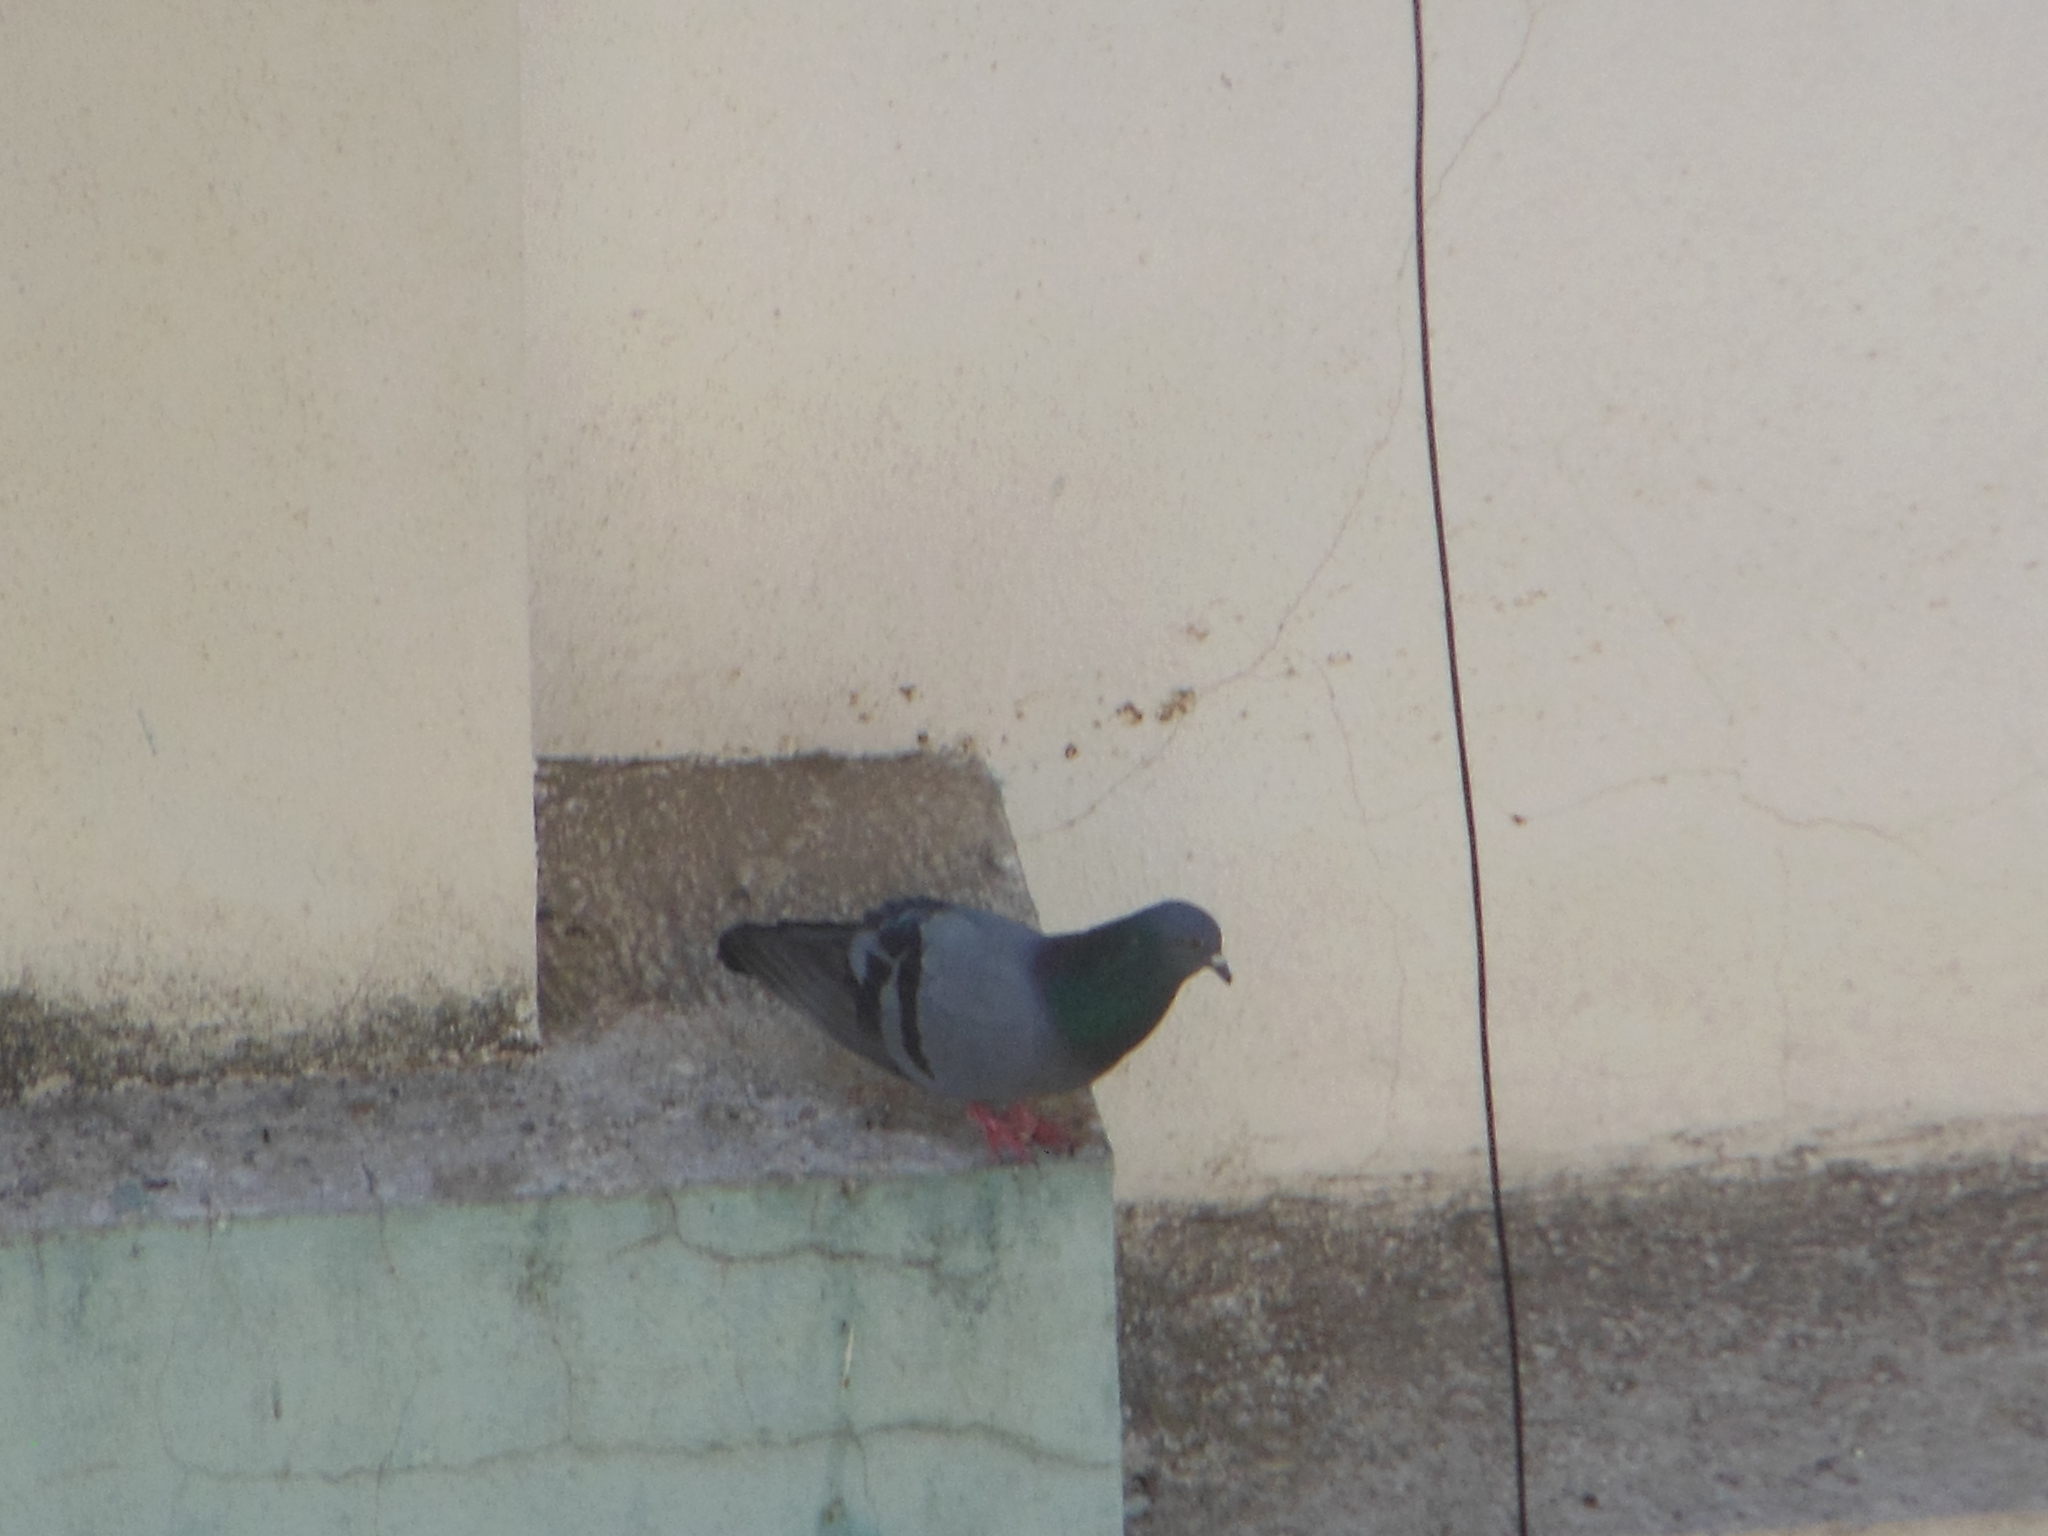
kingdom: Animalia
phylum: Chordata
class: Aves
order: Columbiformes
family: Columbidae
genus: Columba
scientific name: Columba livia
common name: Rock pigeon
